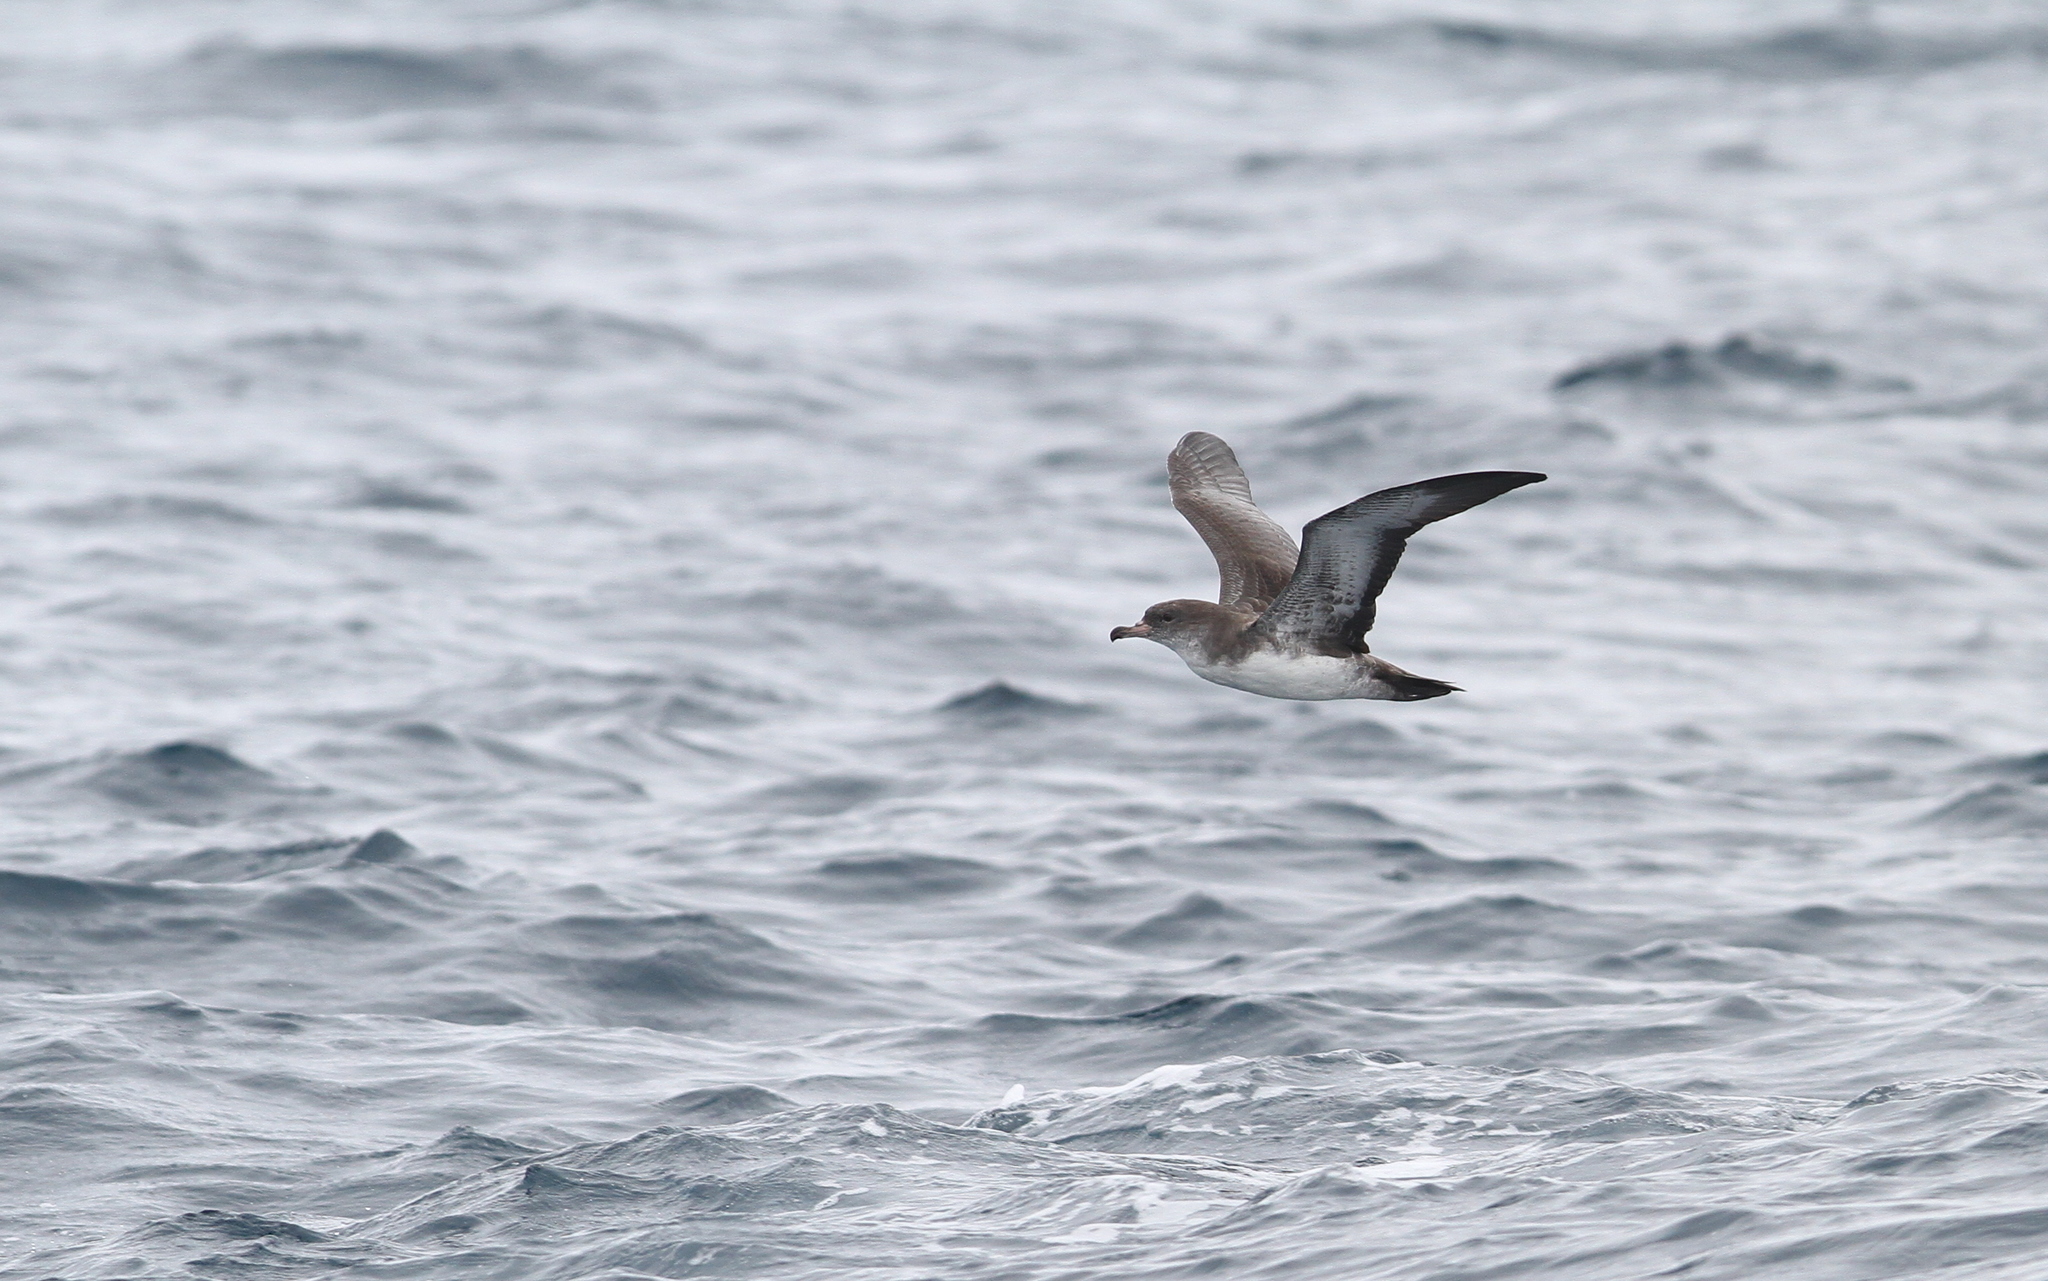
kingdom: Animalia
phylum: Chordata
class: Aves
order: Procellariiformes
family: Procellariidae
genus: Puffinus
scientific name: Puffinus creatopus
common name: Pink-footed shearwater
